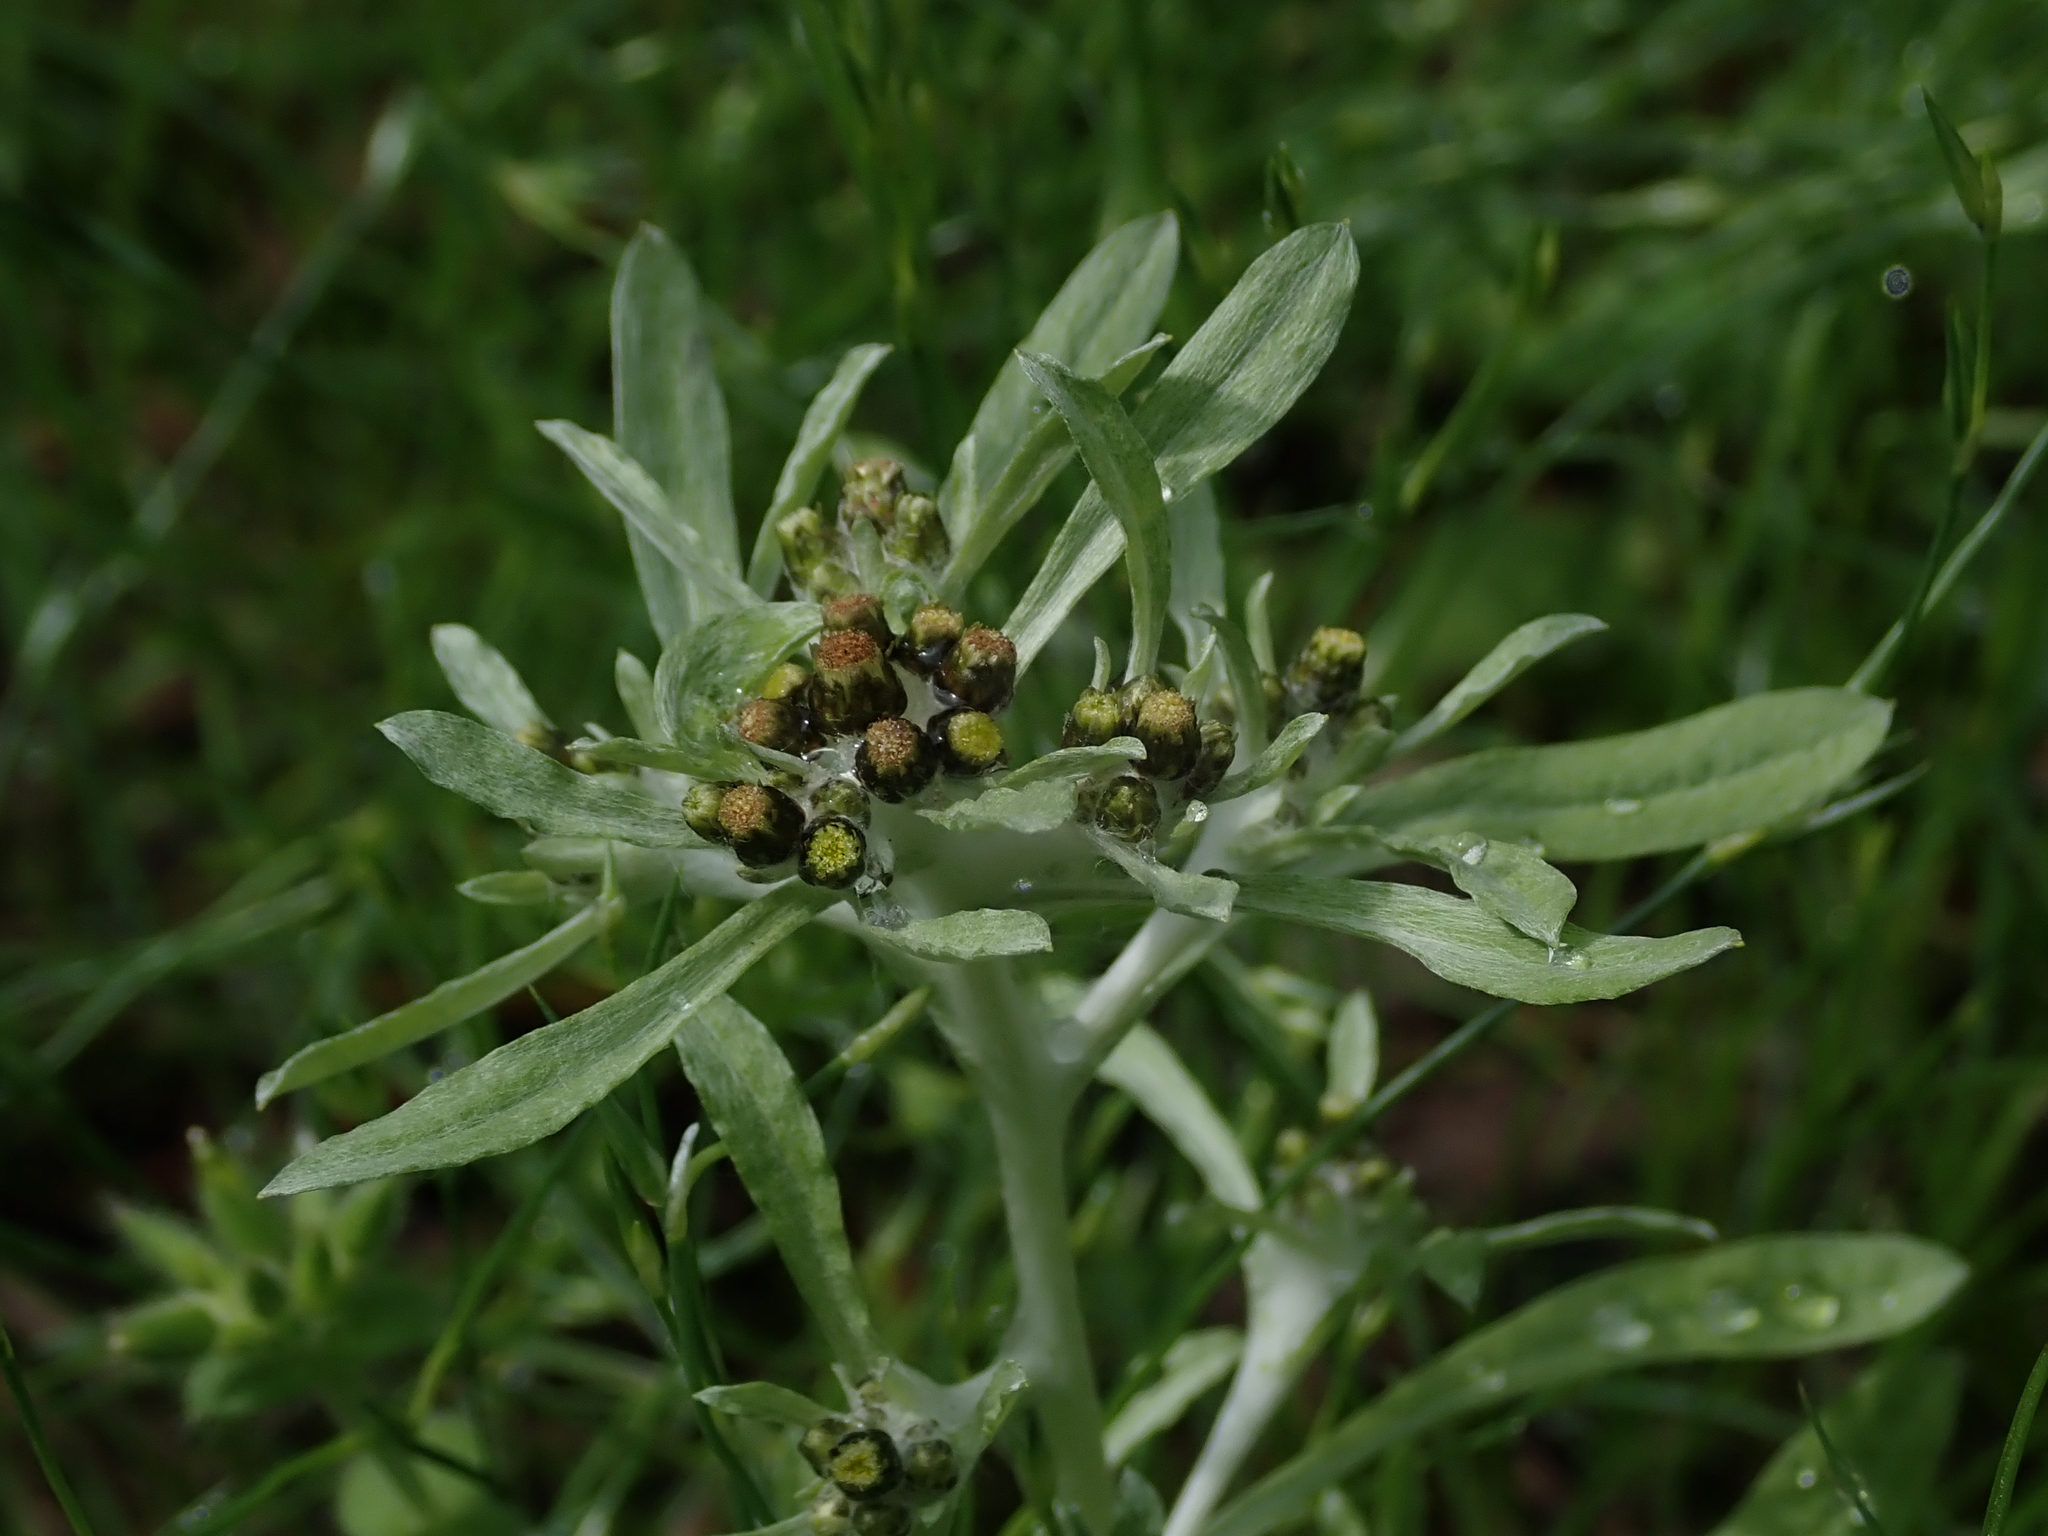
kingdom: Plantae
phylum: Tracheophyta
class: Magnoliopsida
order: Asterales
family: Asteraceae
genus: Gnaphalium
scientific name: Gnaphalium uliginosum
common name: Marsh cudweed
